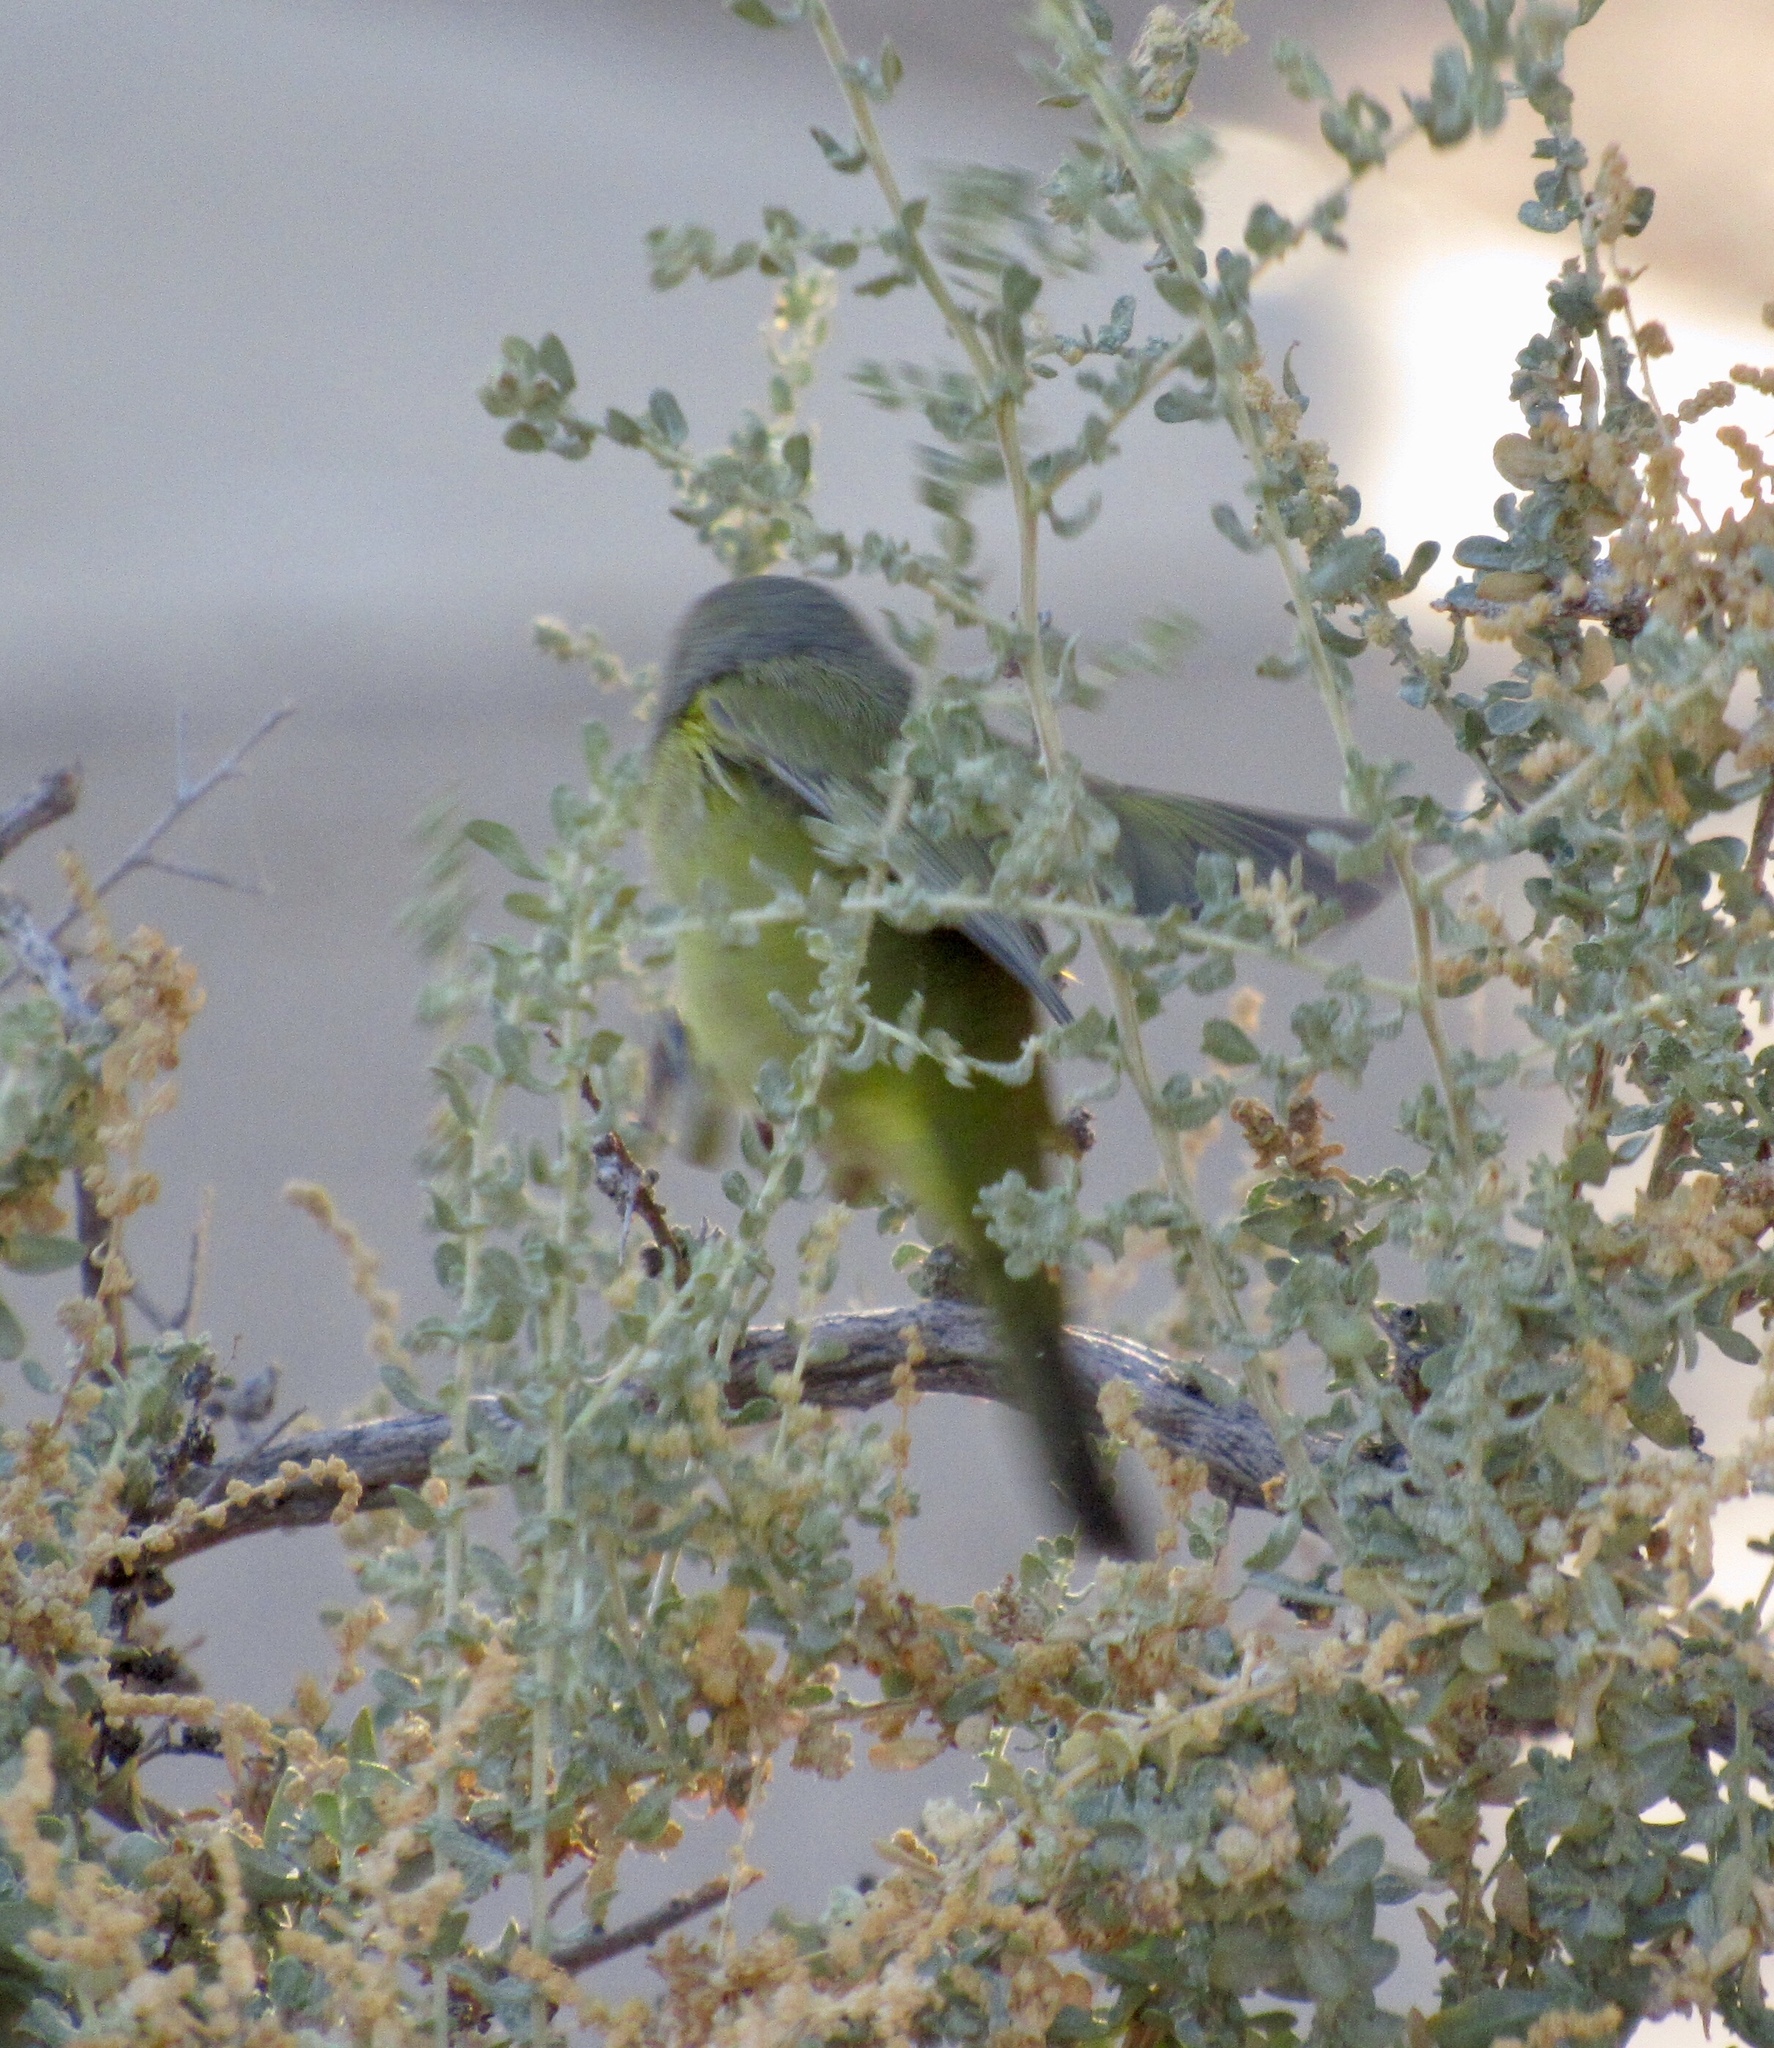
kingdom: Animalia
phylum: Chordata
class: Aves
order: Passeriformes
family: Parulidae
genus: Leiothlypis
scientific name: Leiothlypis celata
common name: Orange-crowned warbler
